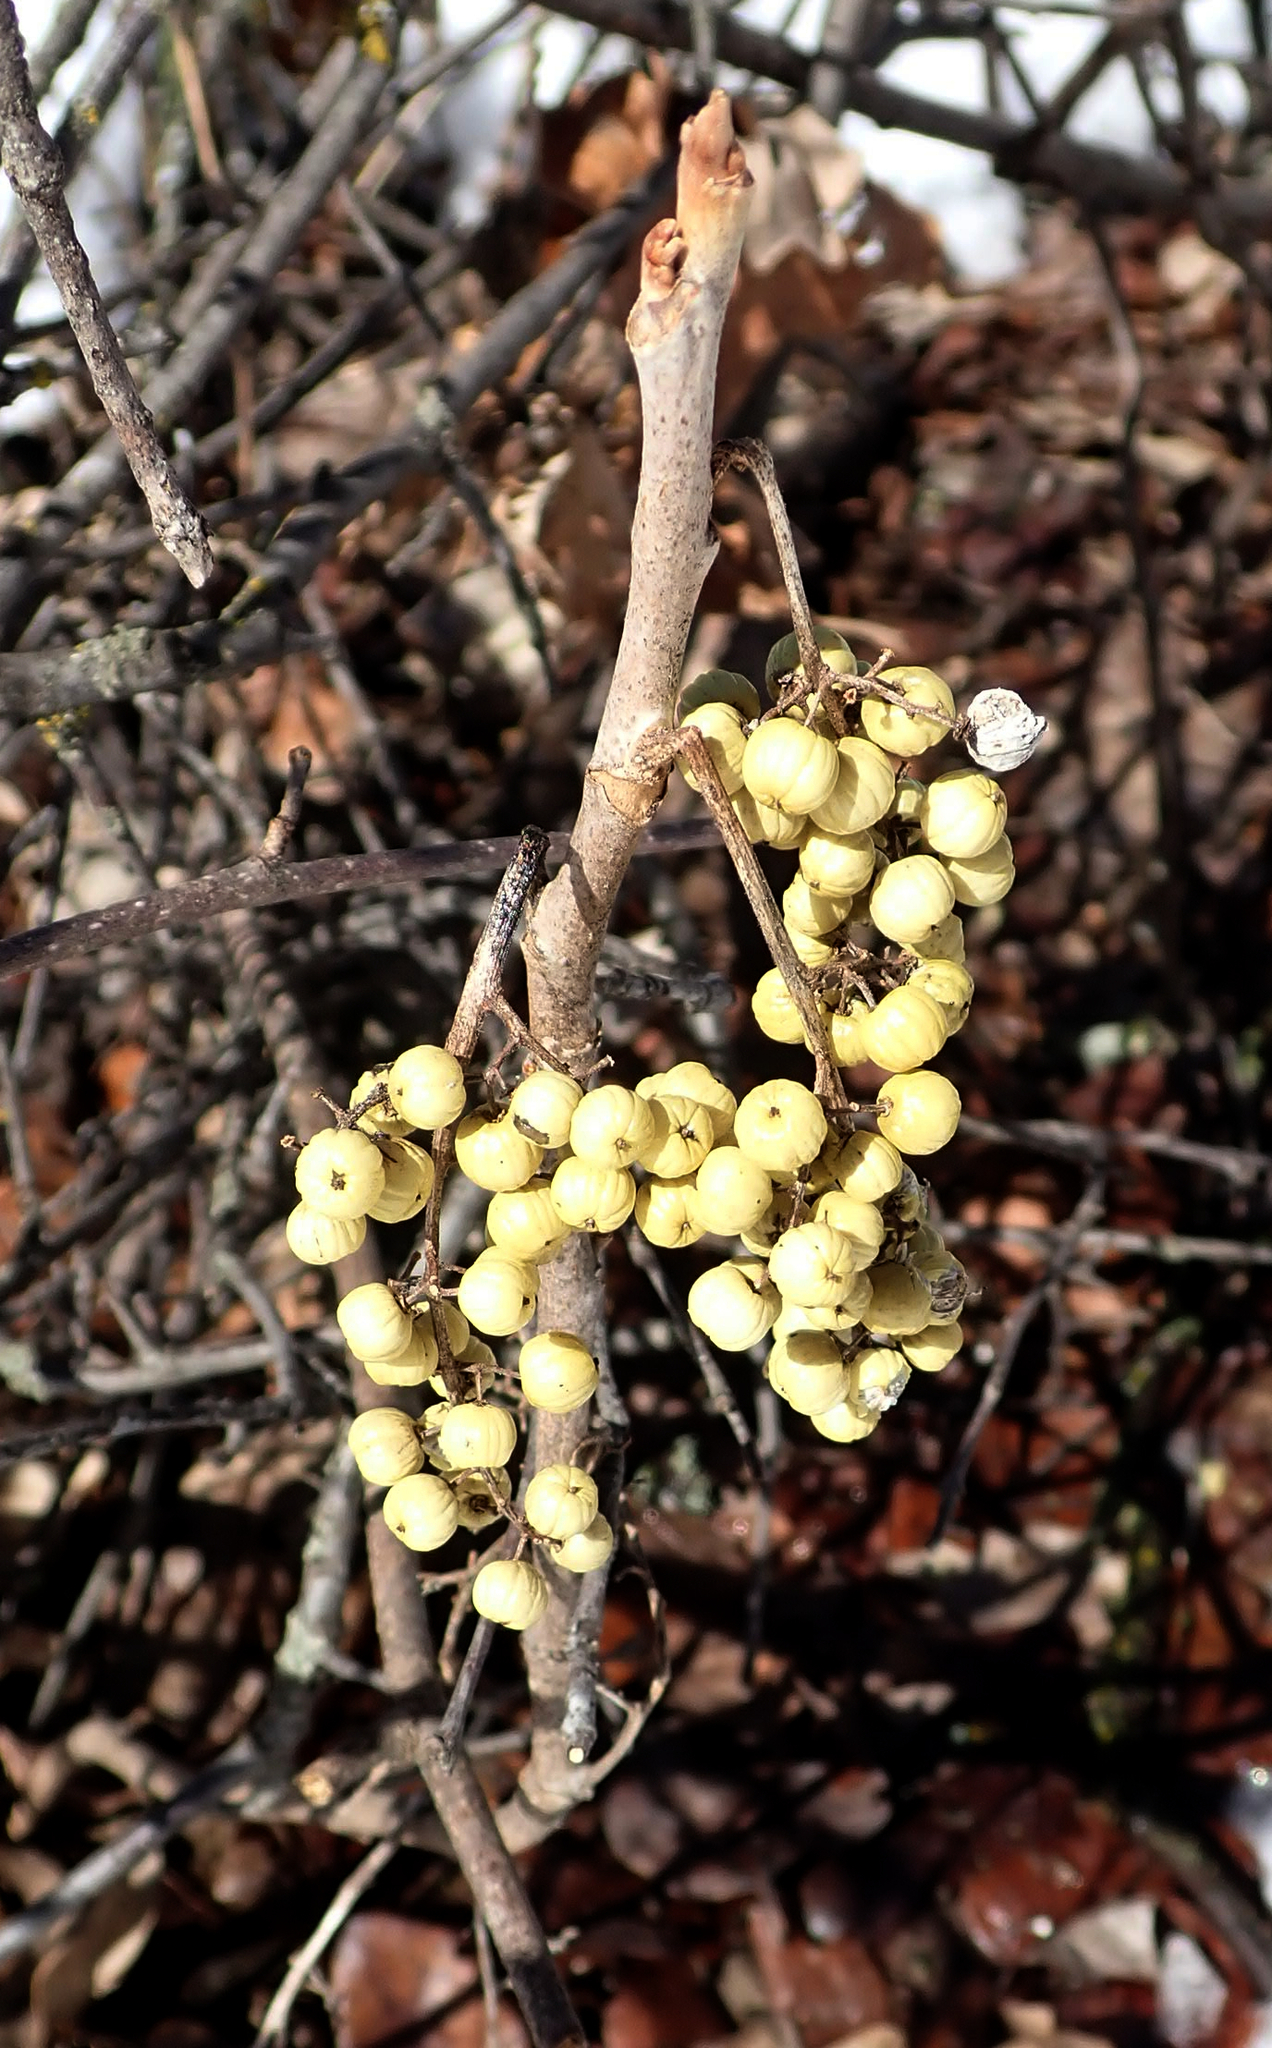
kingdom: Plantae
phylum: Tracheophyta
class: Magnoliopsida
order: Sapindales
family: Anacardiaceae
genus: Toxicodendron
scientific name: Toxicodendron rydbergii
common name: Rydberg's poison-ivy
